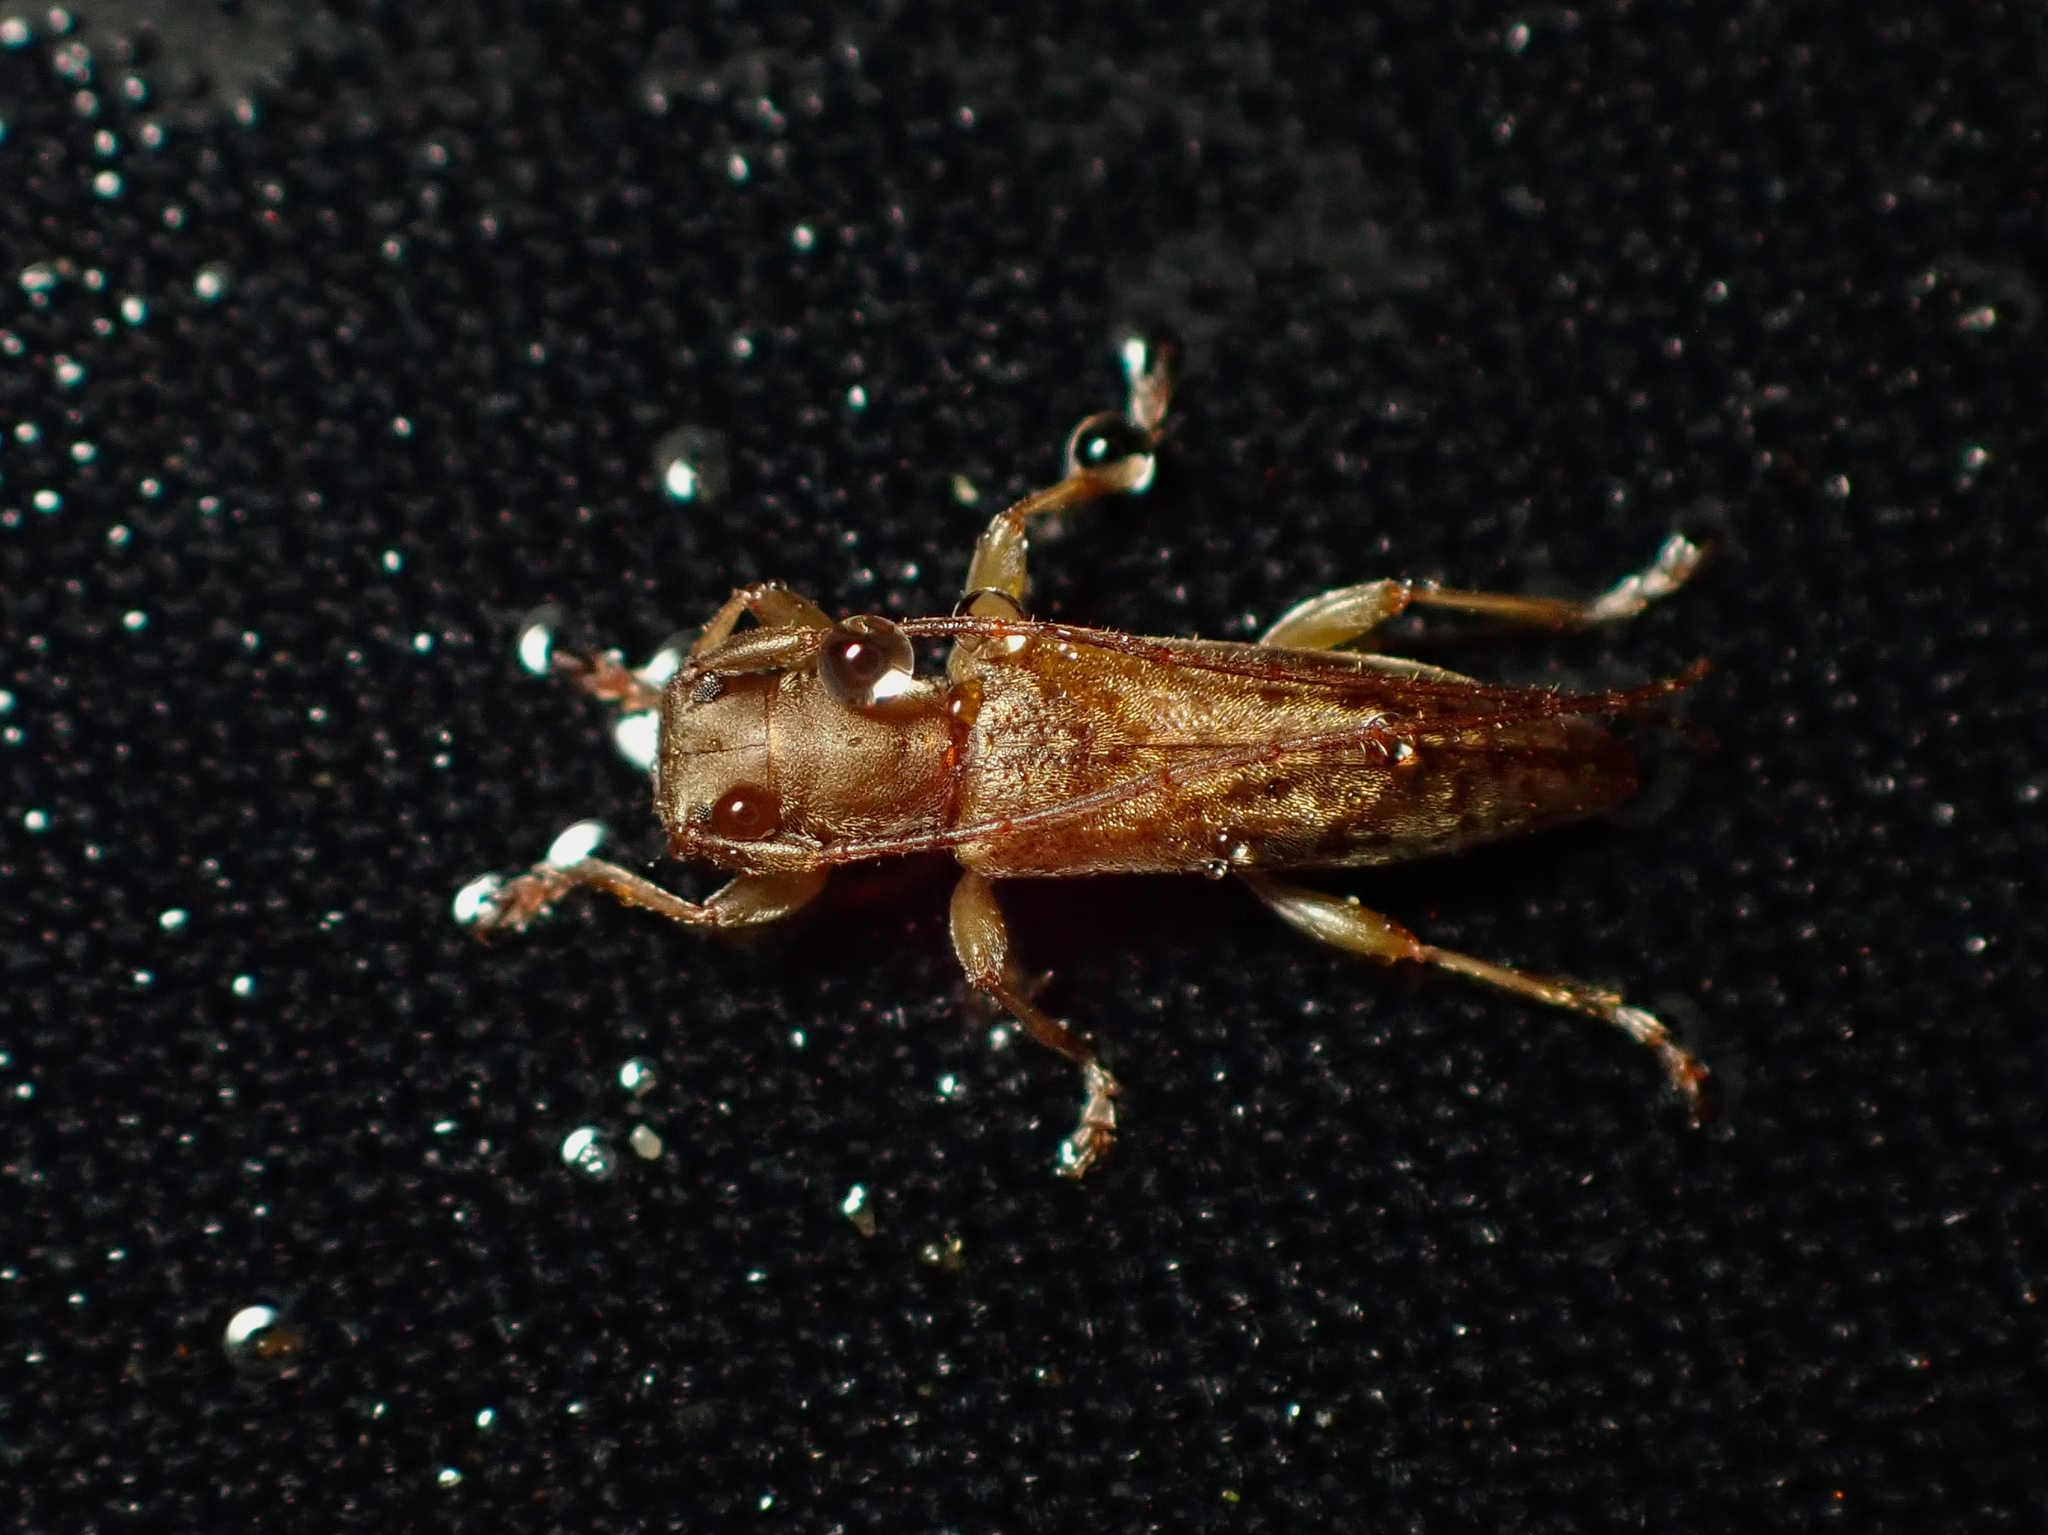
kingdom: Animalia
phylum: Arthropoda
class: Insecta
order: Coleoptera
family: Cerambycidae
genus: Spilotrogia
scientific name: Spilotrogia
